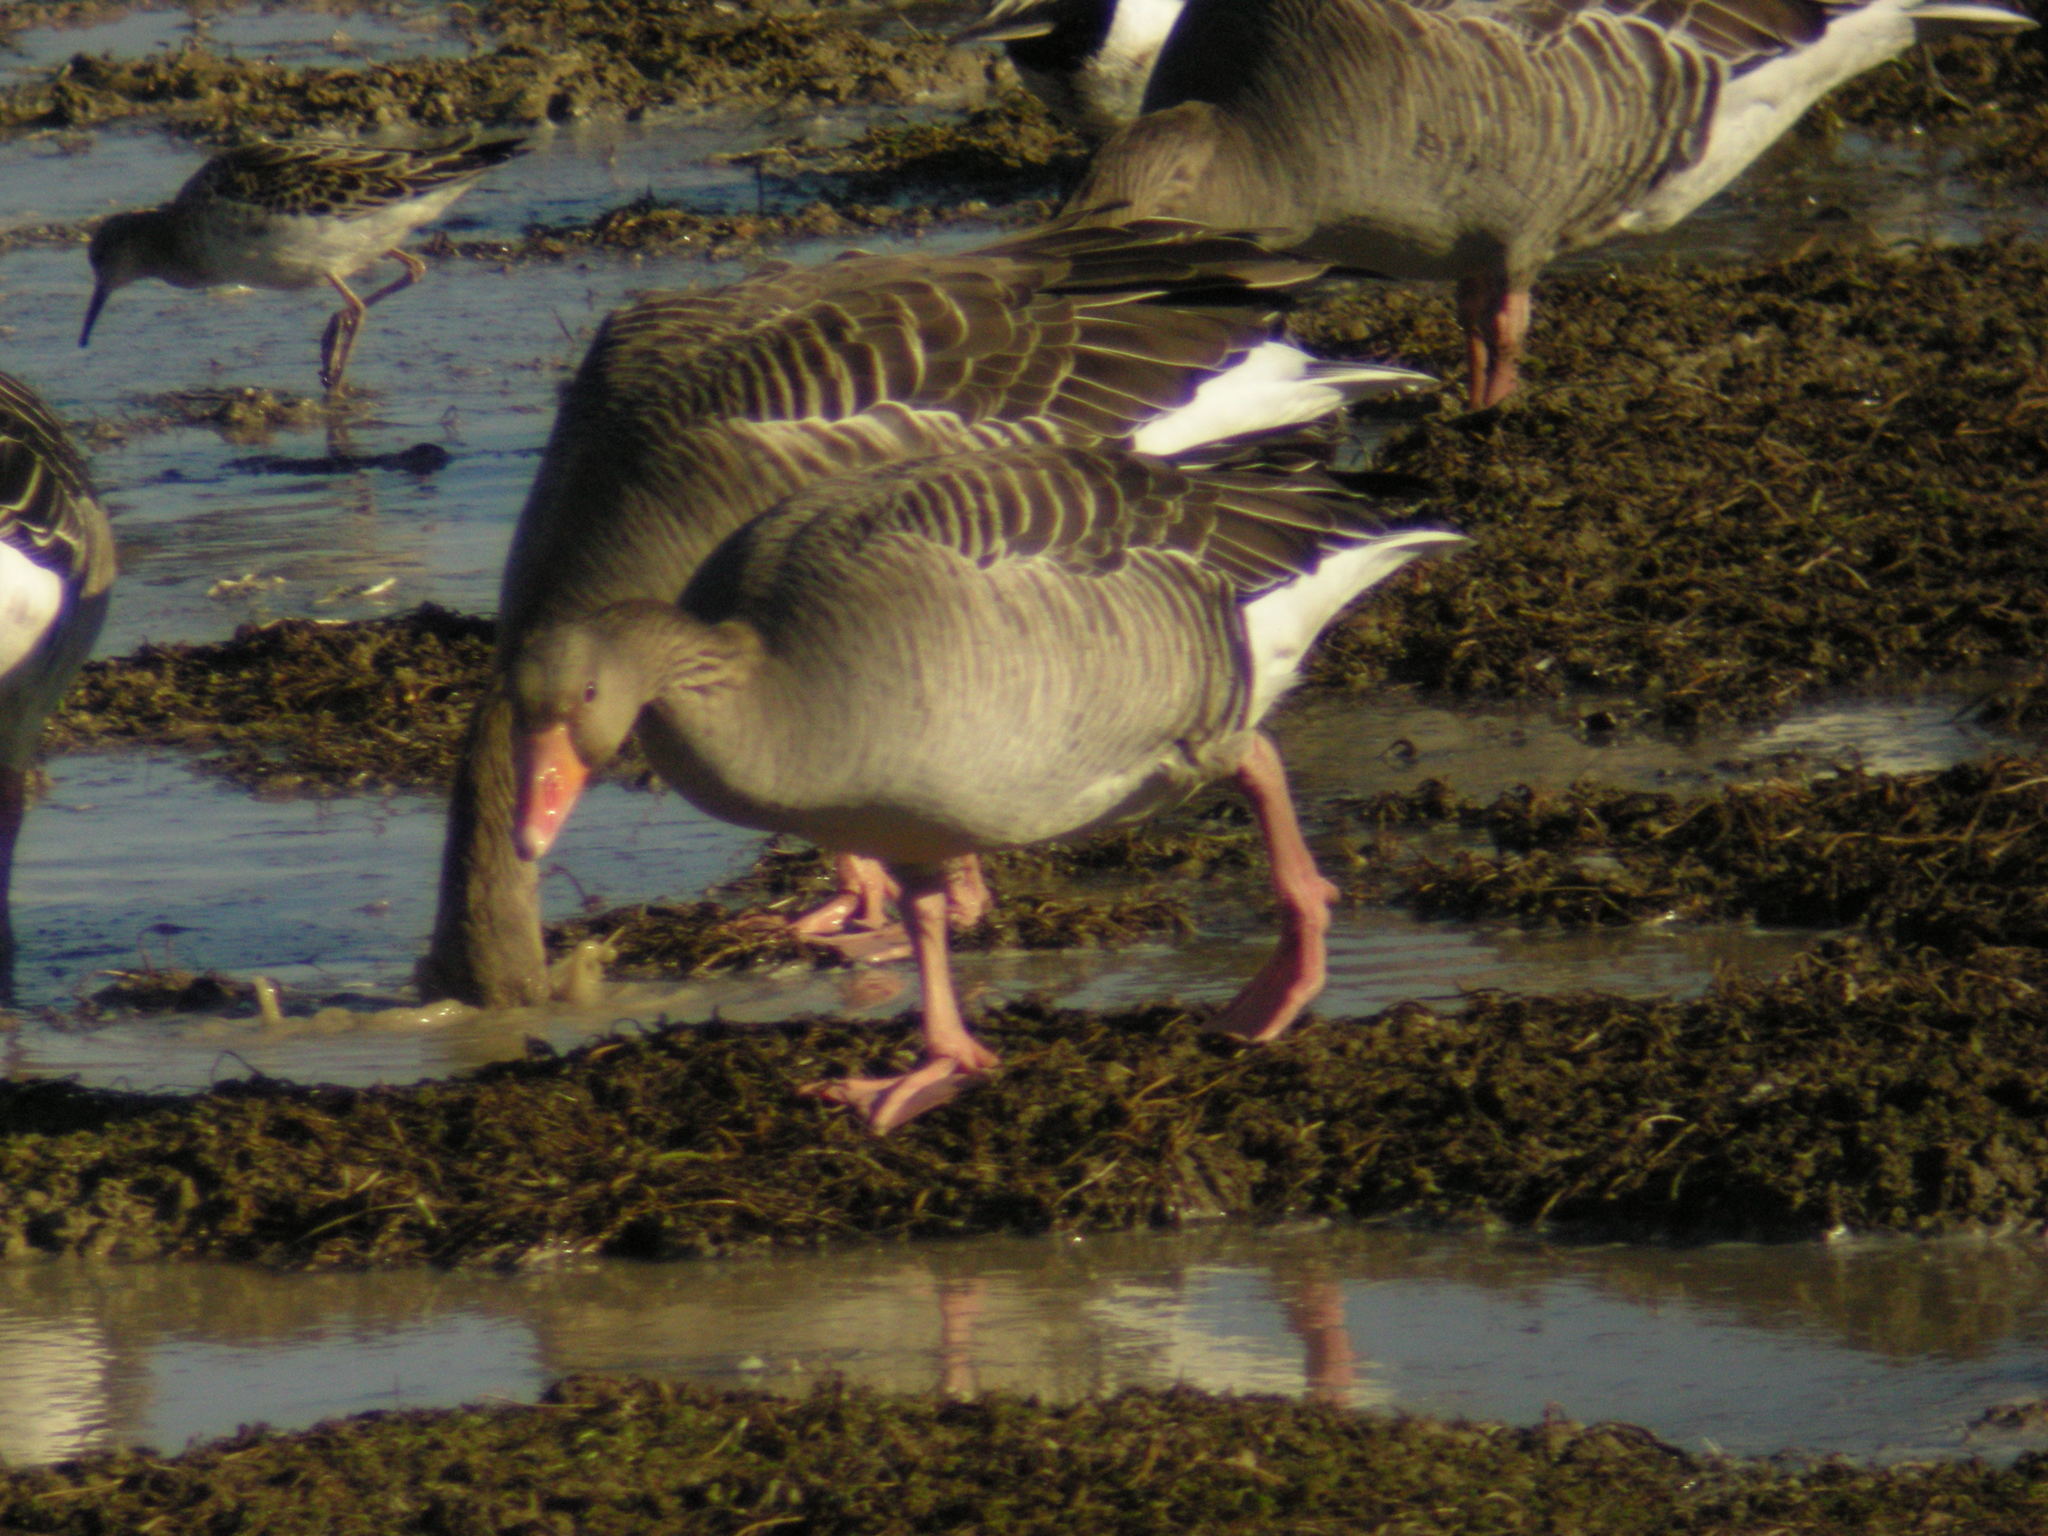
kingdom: Animalia
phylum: Chordata
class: Aves
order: Anseriformes
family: Anatidae
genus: Anser
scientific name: Anser anser
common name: Greylag goose
